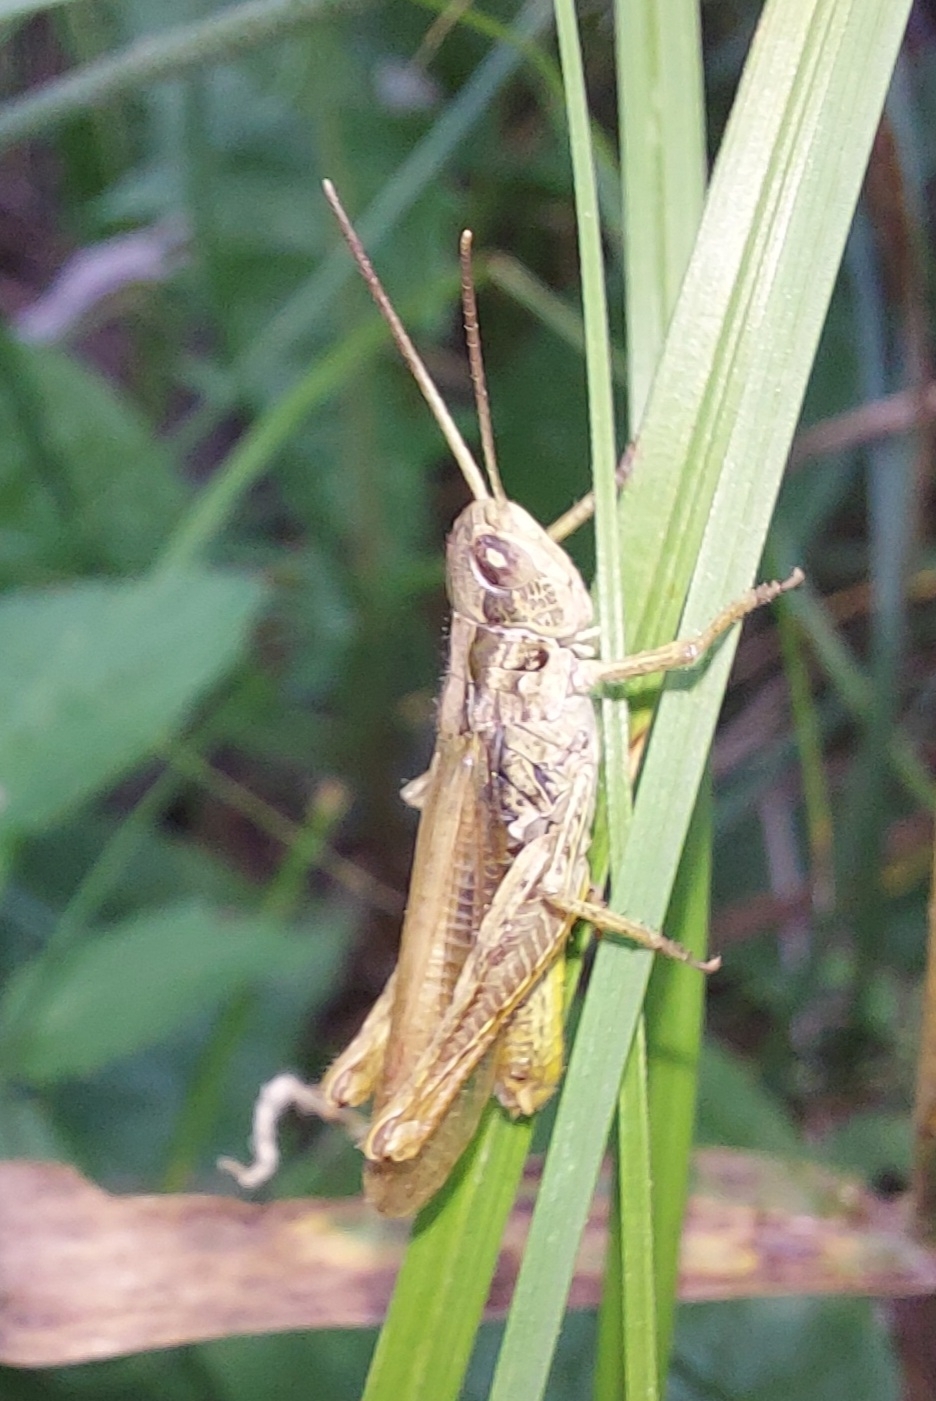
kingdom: Animalia
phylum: Arthropoda
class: Insecta
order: Orthoptera
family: Acrididae
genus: Chorthippus
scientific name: Chorthippus apricarius
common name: Upland field grasshopper
